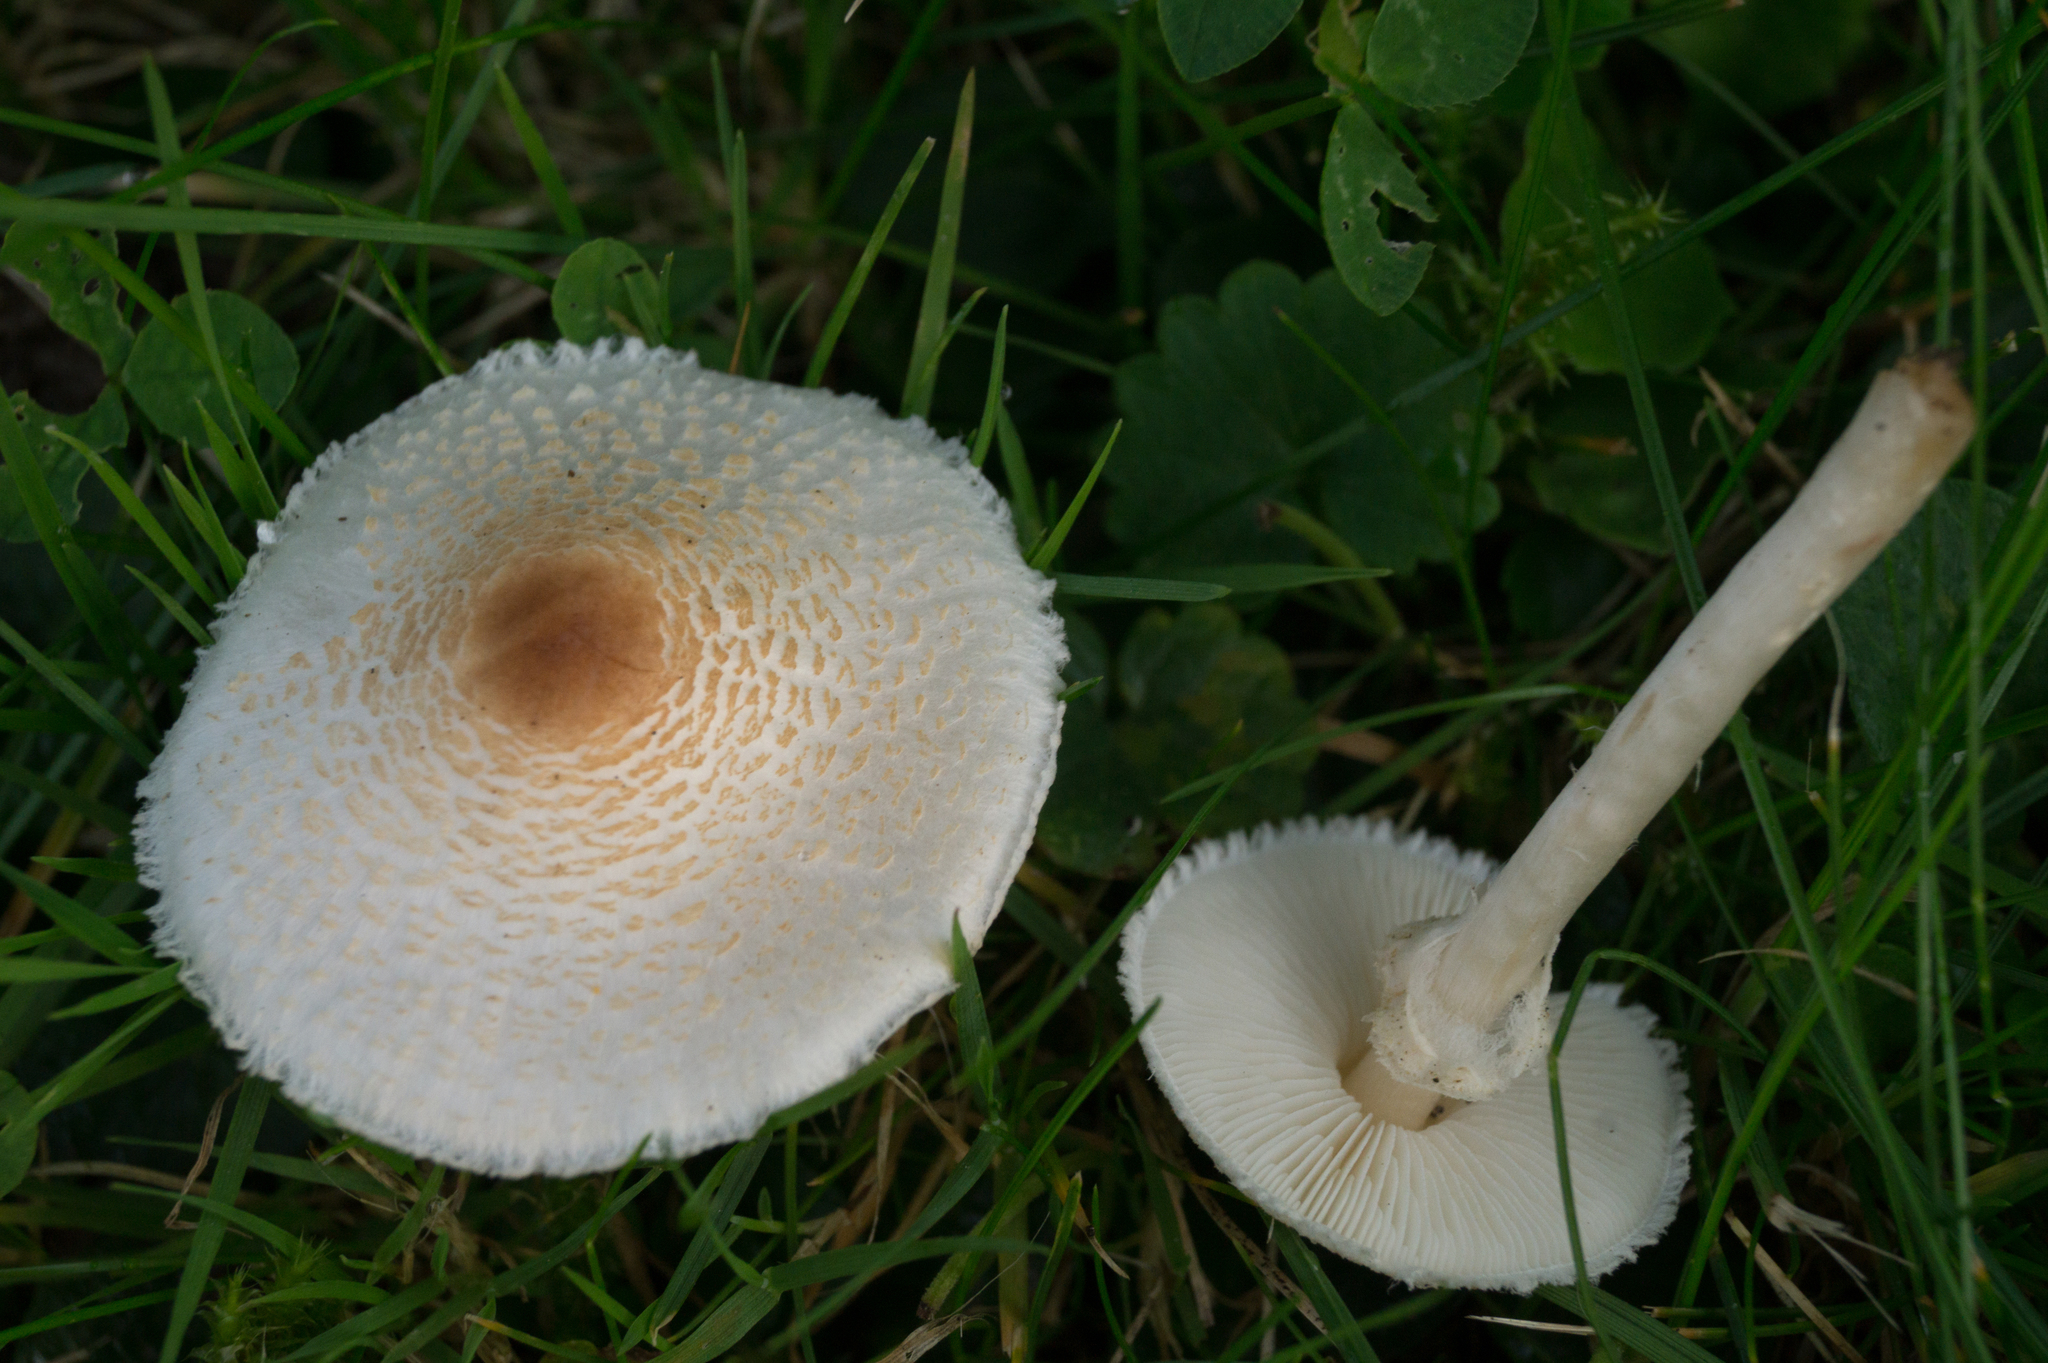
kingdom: Fungi
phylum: Basidiomycota
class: Agaricomycetes
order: Agaricales
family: Agaricaceae
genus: Lepiota
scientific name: Lepiota cristata
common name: Stinking dapperling
